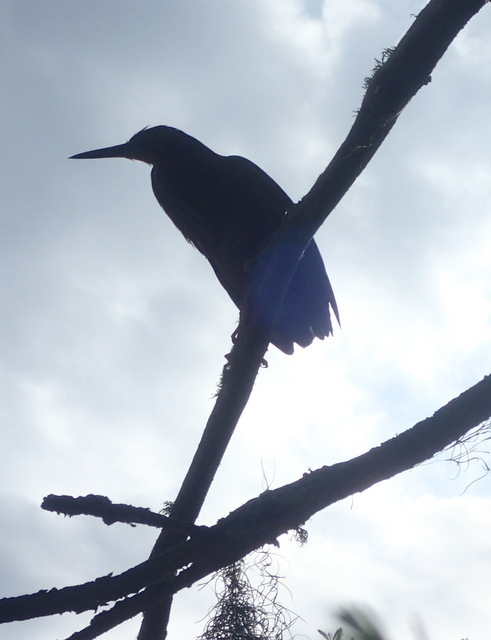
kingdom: Animalia
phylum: Chordata
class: Aves
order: Pelecaniformes
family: Ardeidae
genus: Butorides
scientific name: Butorides virescens
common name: Green heron
